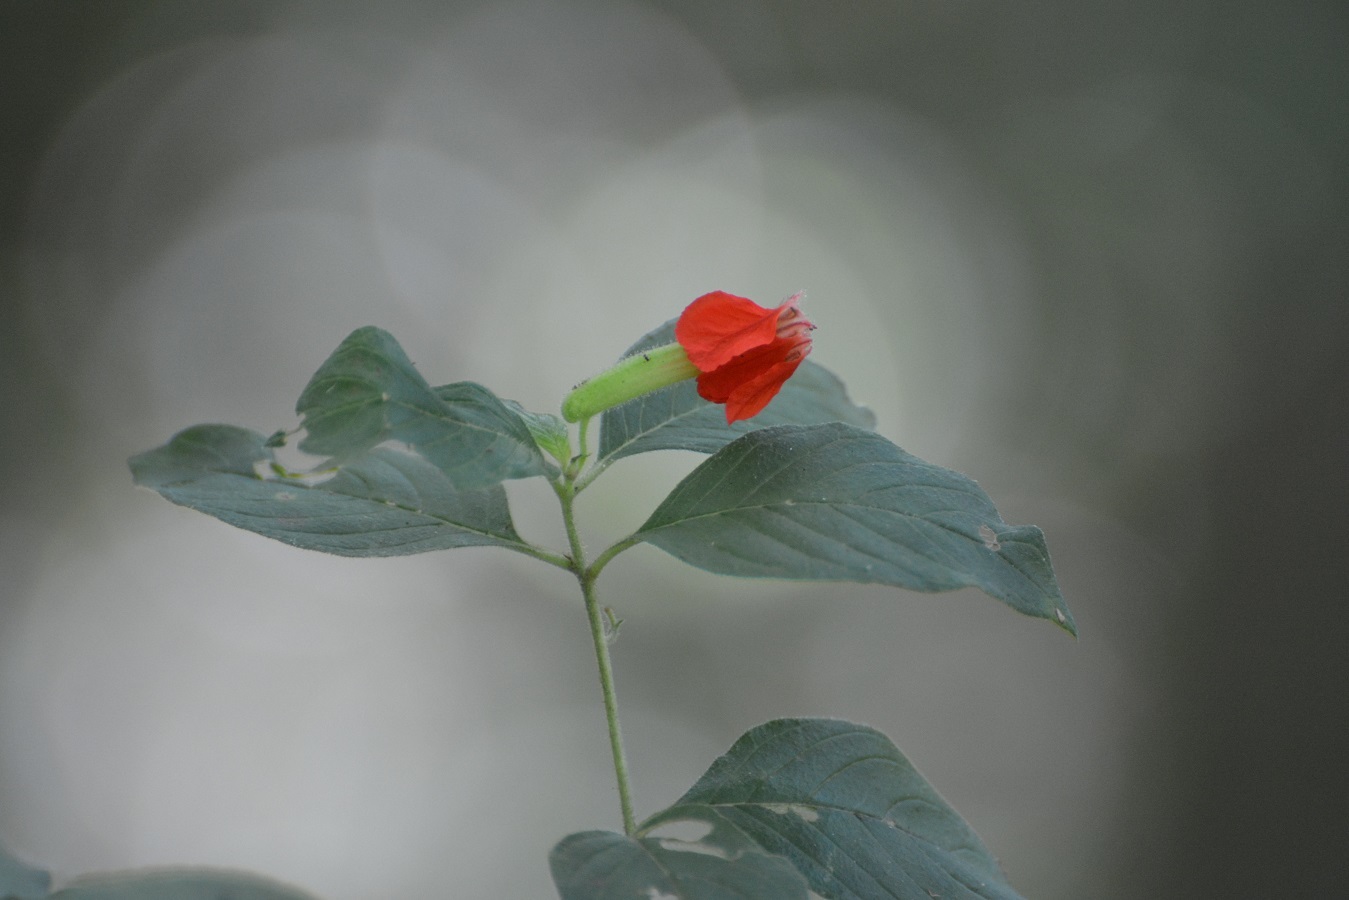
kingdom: Plantae
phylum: Tracheophyta
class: Magnoliopsida
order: Myrtales
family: Lythraceae
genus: Cuphea
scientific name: Cuphea intermedia
